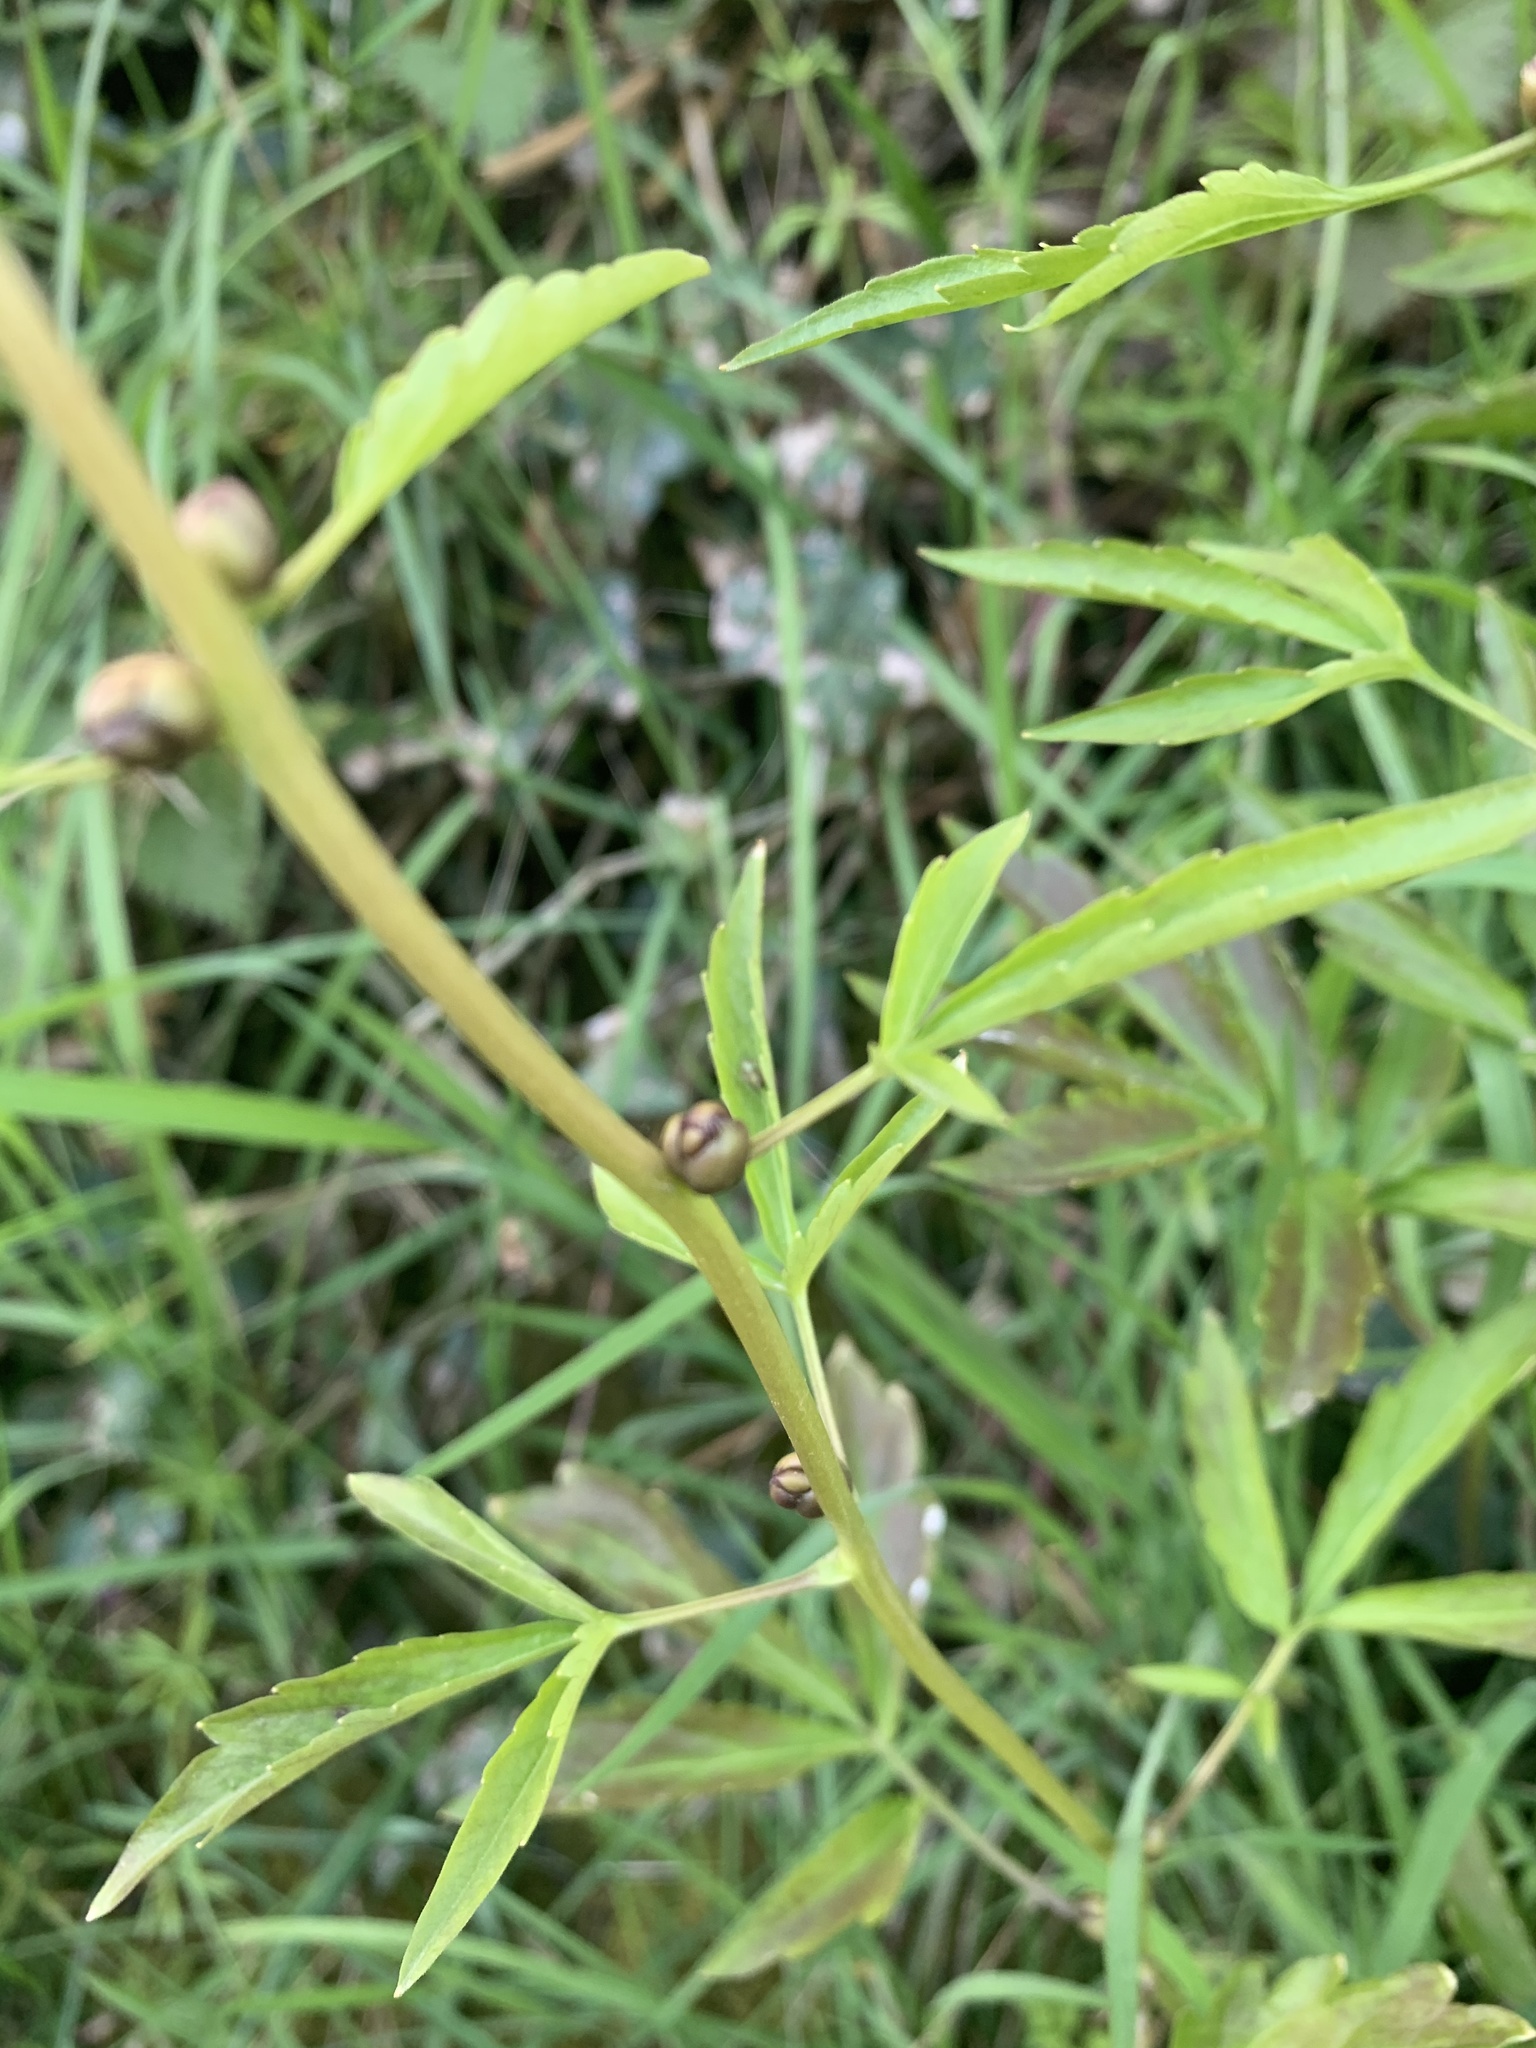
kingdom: Plantae
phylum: Tracheophyta
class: Magnoliopsida
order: Brassicales
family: Brassicaceae
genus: Cardamine
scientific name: Cardamine bulbifera
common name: Coralroot bittercress
